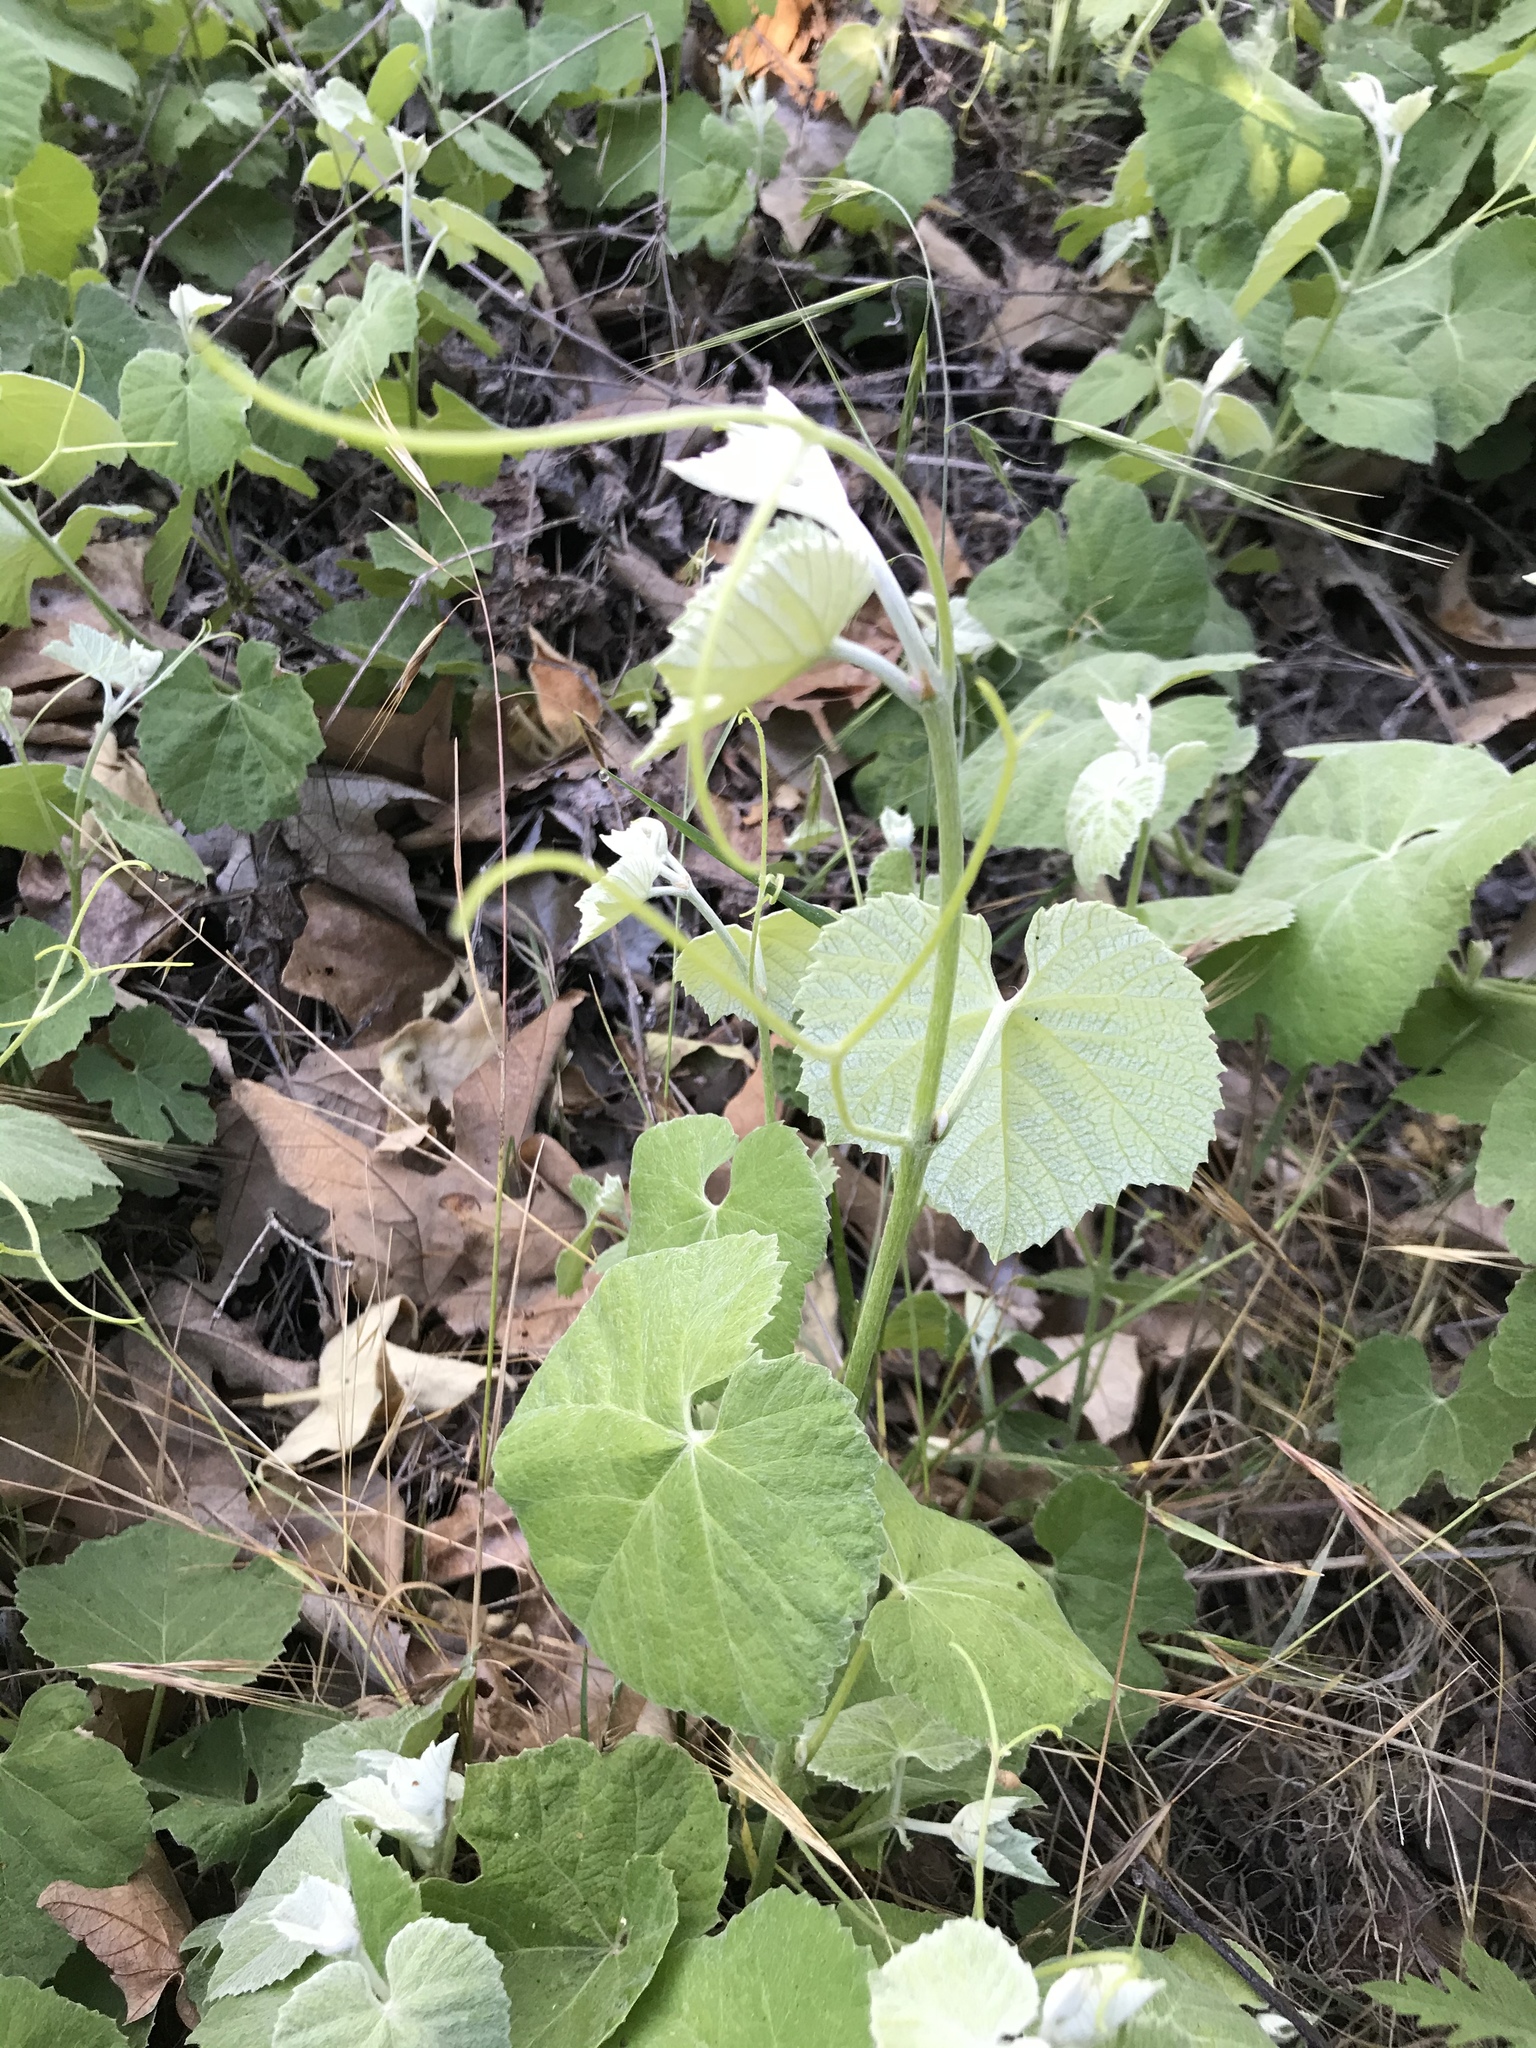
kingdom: Plantae
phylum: Tracheophyta
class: Magnoliopsida
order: Vitales
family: Vitaceae
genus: Vitis
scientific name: Vitis girdiana
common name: Desert wild grape
